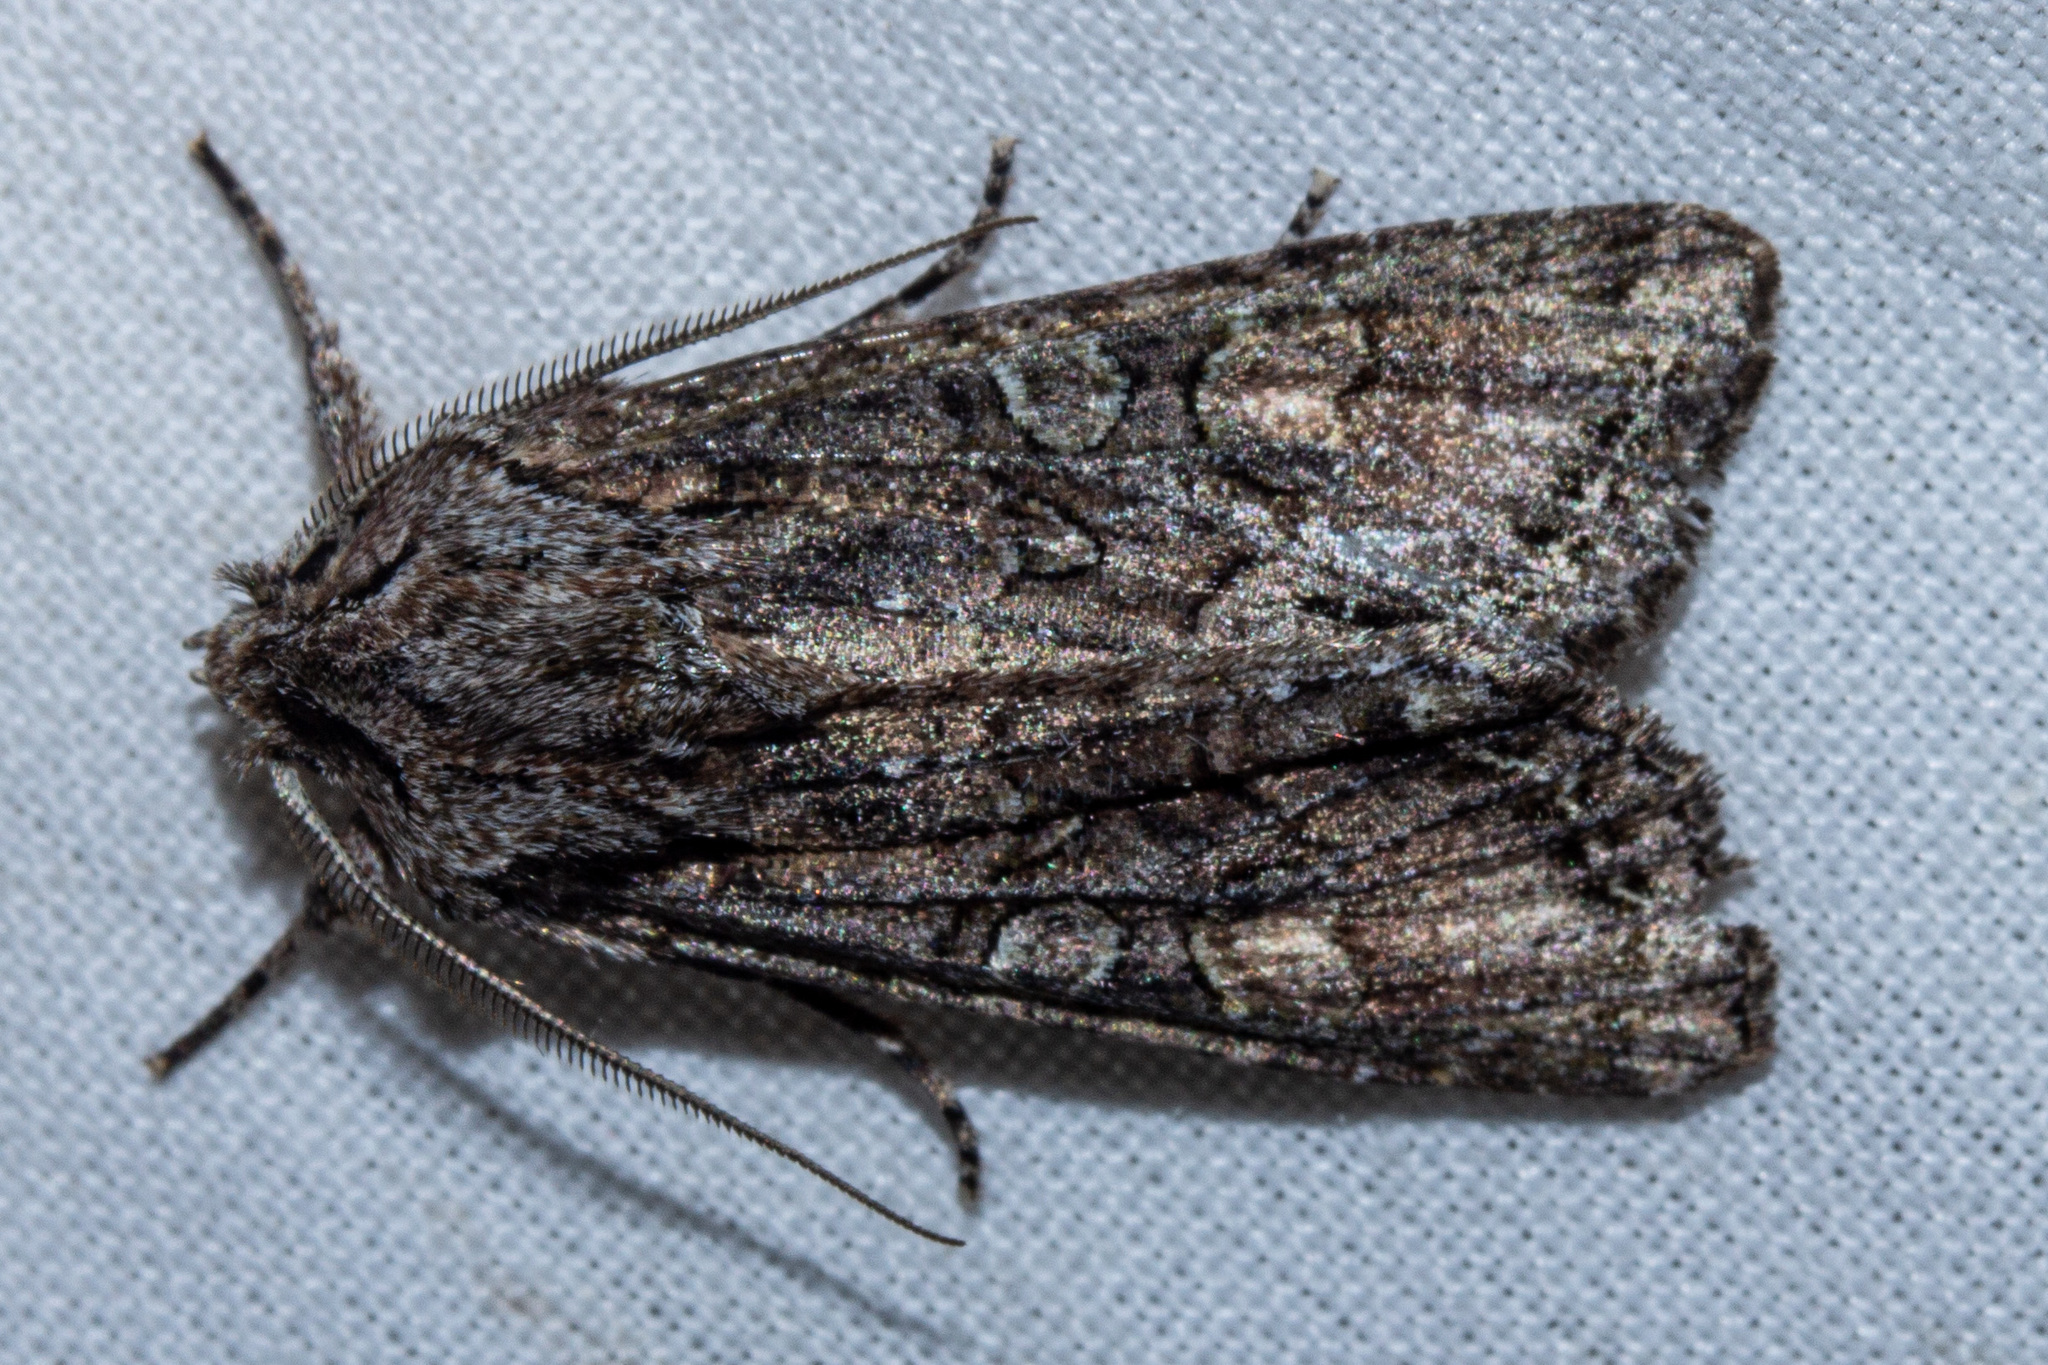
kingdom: Animalia
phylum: Arthropoda
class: Insecta
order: Lepidoptera
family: Noctuidae
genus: Ichneutica
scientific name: Ichneutica mutans
